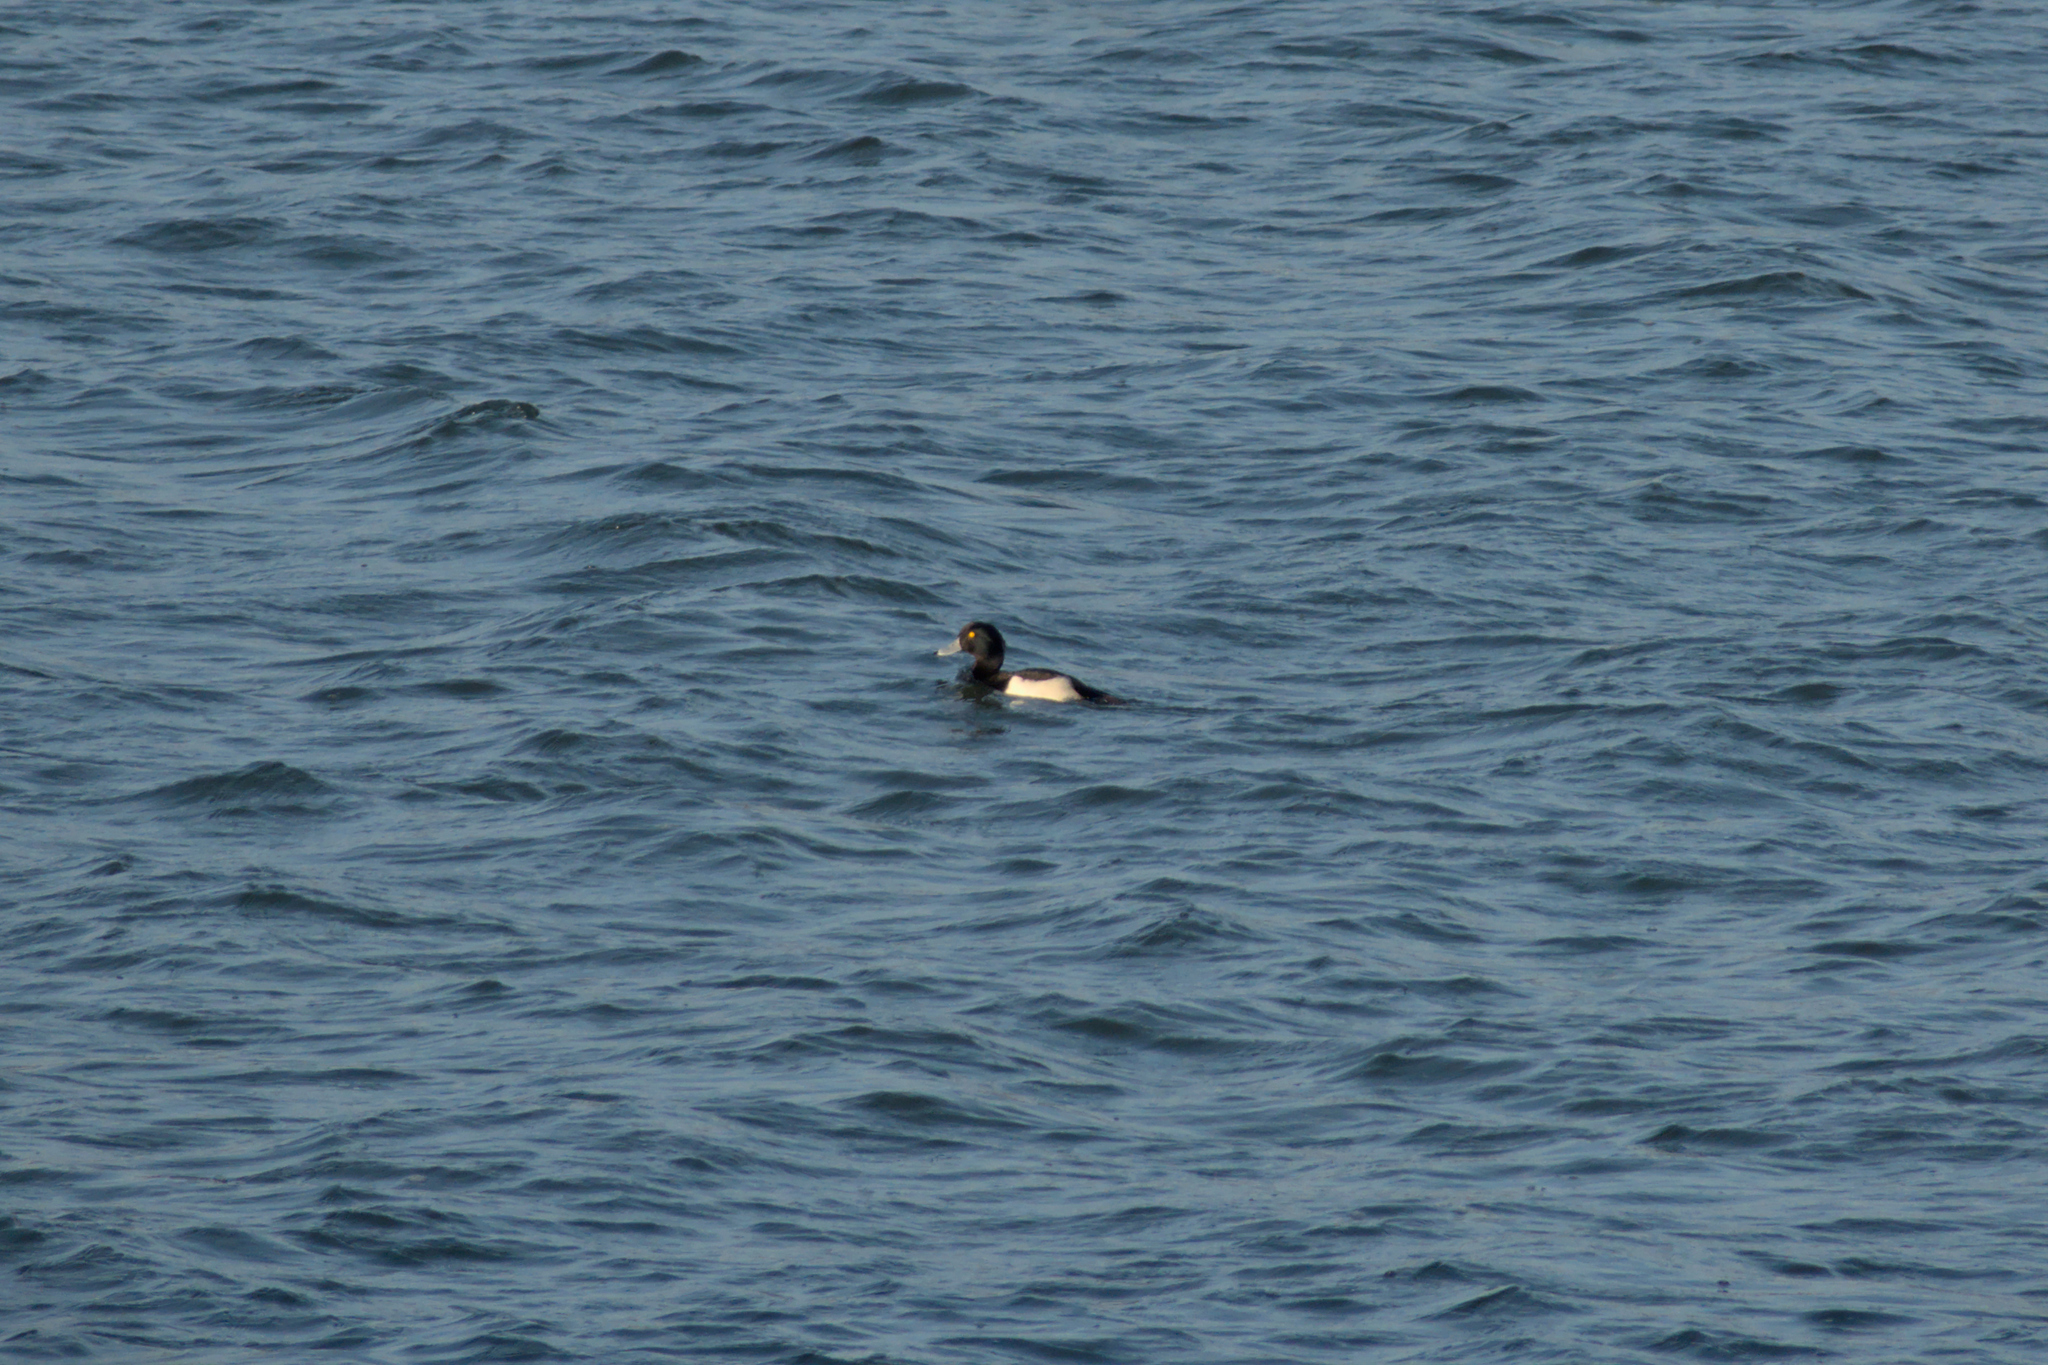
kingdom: Animalia
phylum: Chordata
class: Aves
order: Anseriformes
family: Anatidae
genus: Aythya
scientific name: Aythya fuligula
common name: Tufted duck
